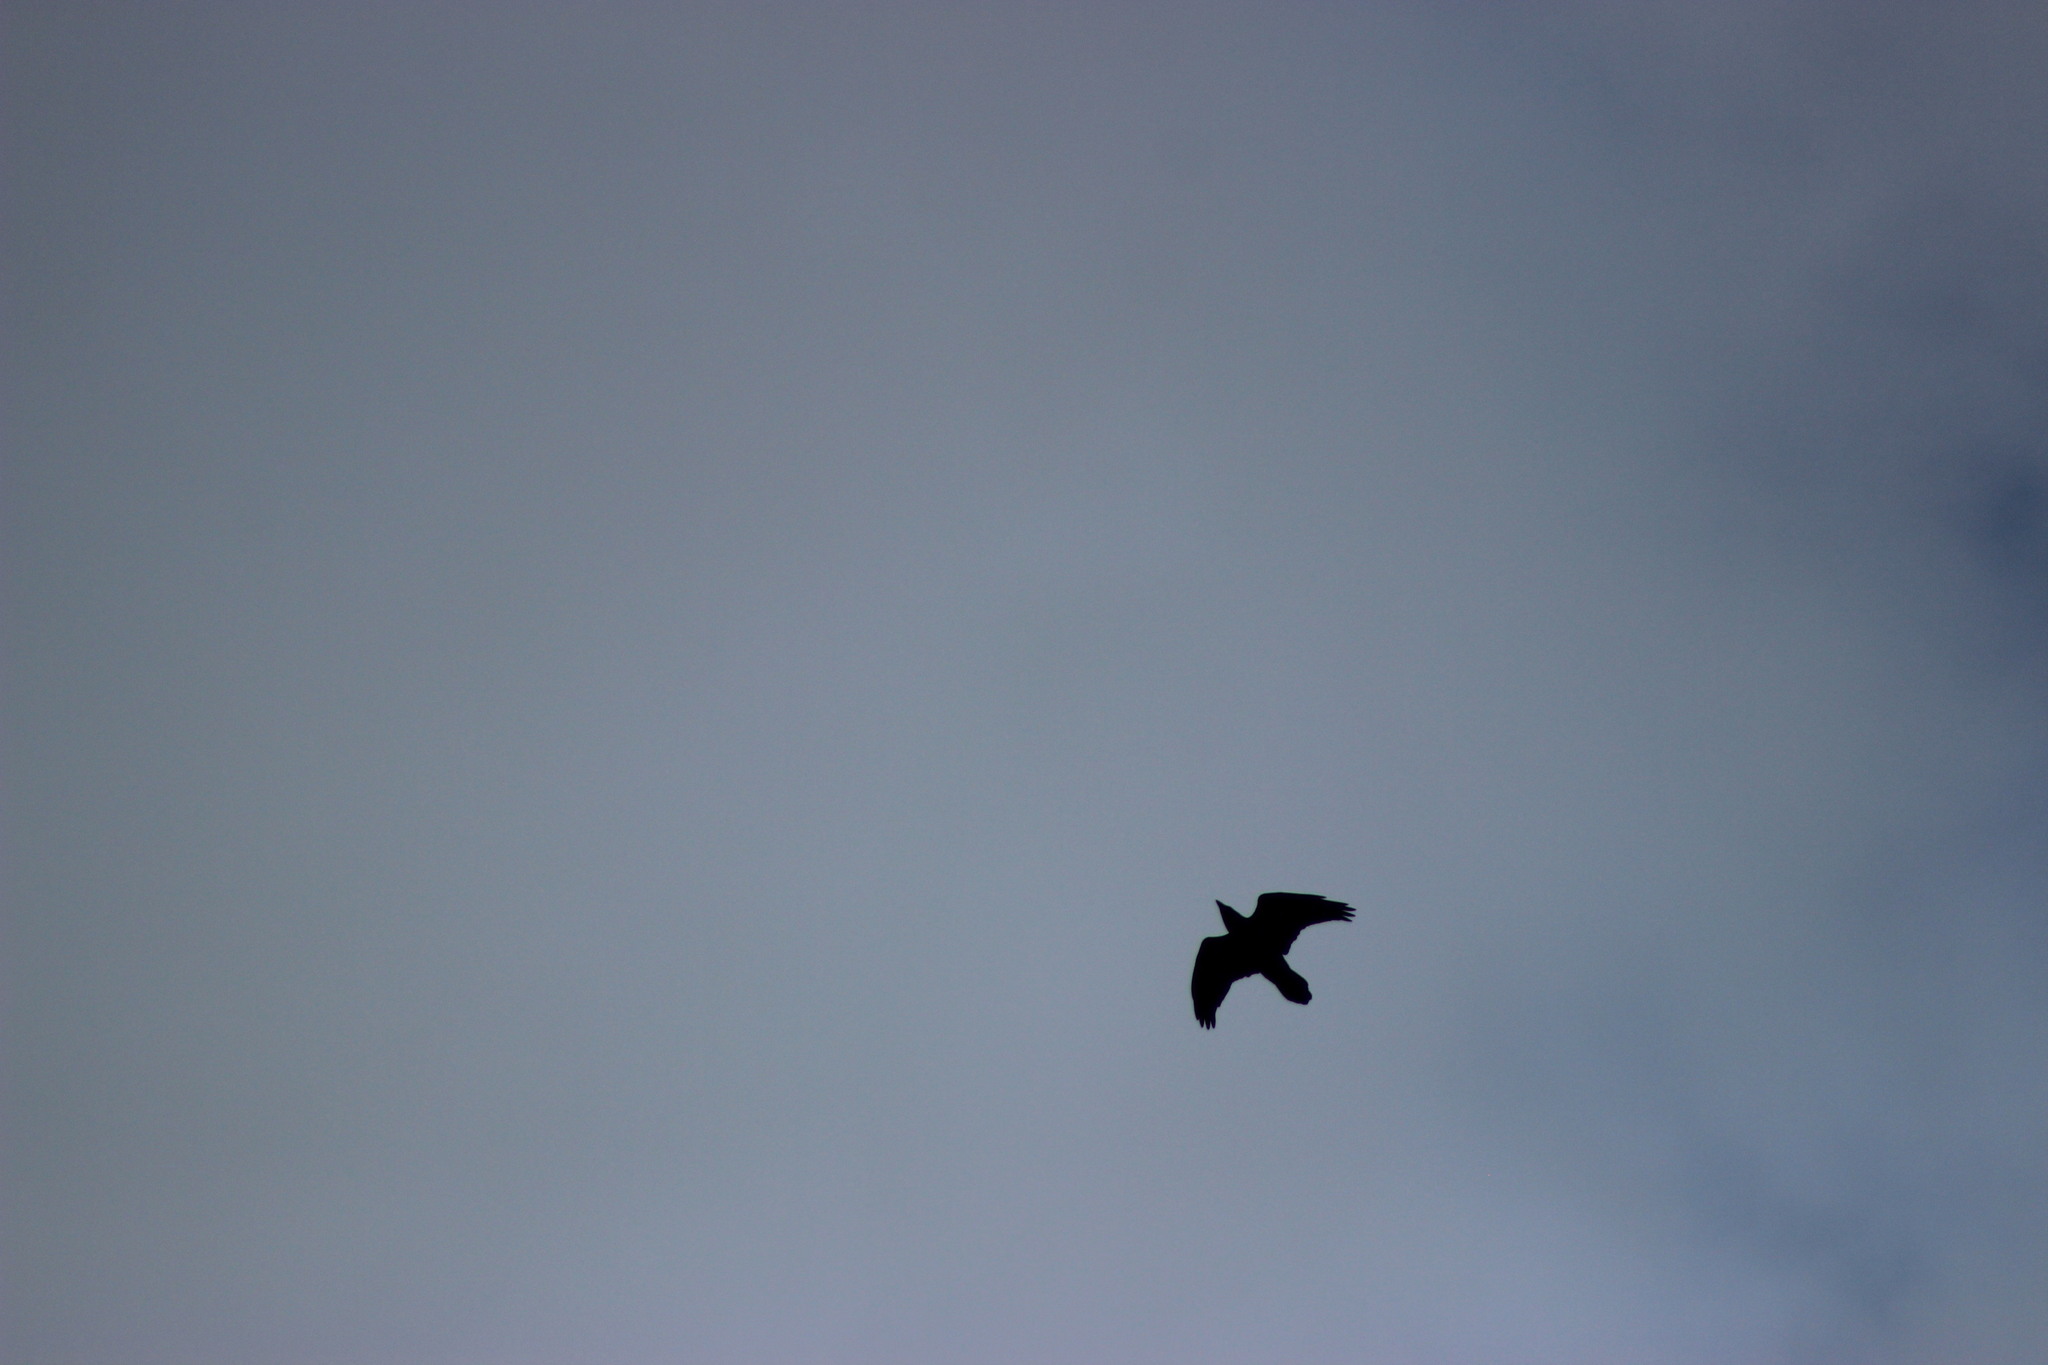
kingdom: Animalia
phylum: Chordata
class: Aves
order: Passeriformes
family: Corvidae
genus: Corvus
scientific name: Corvus corax
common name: Common raven
